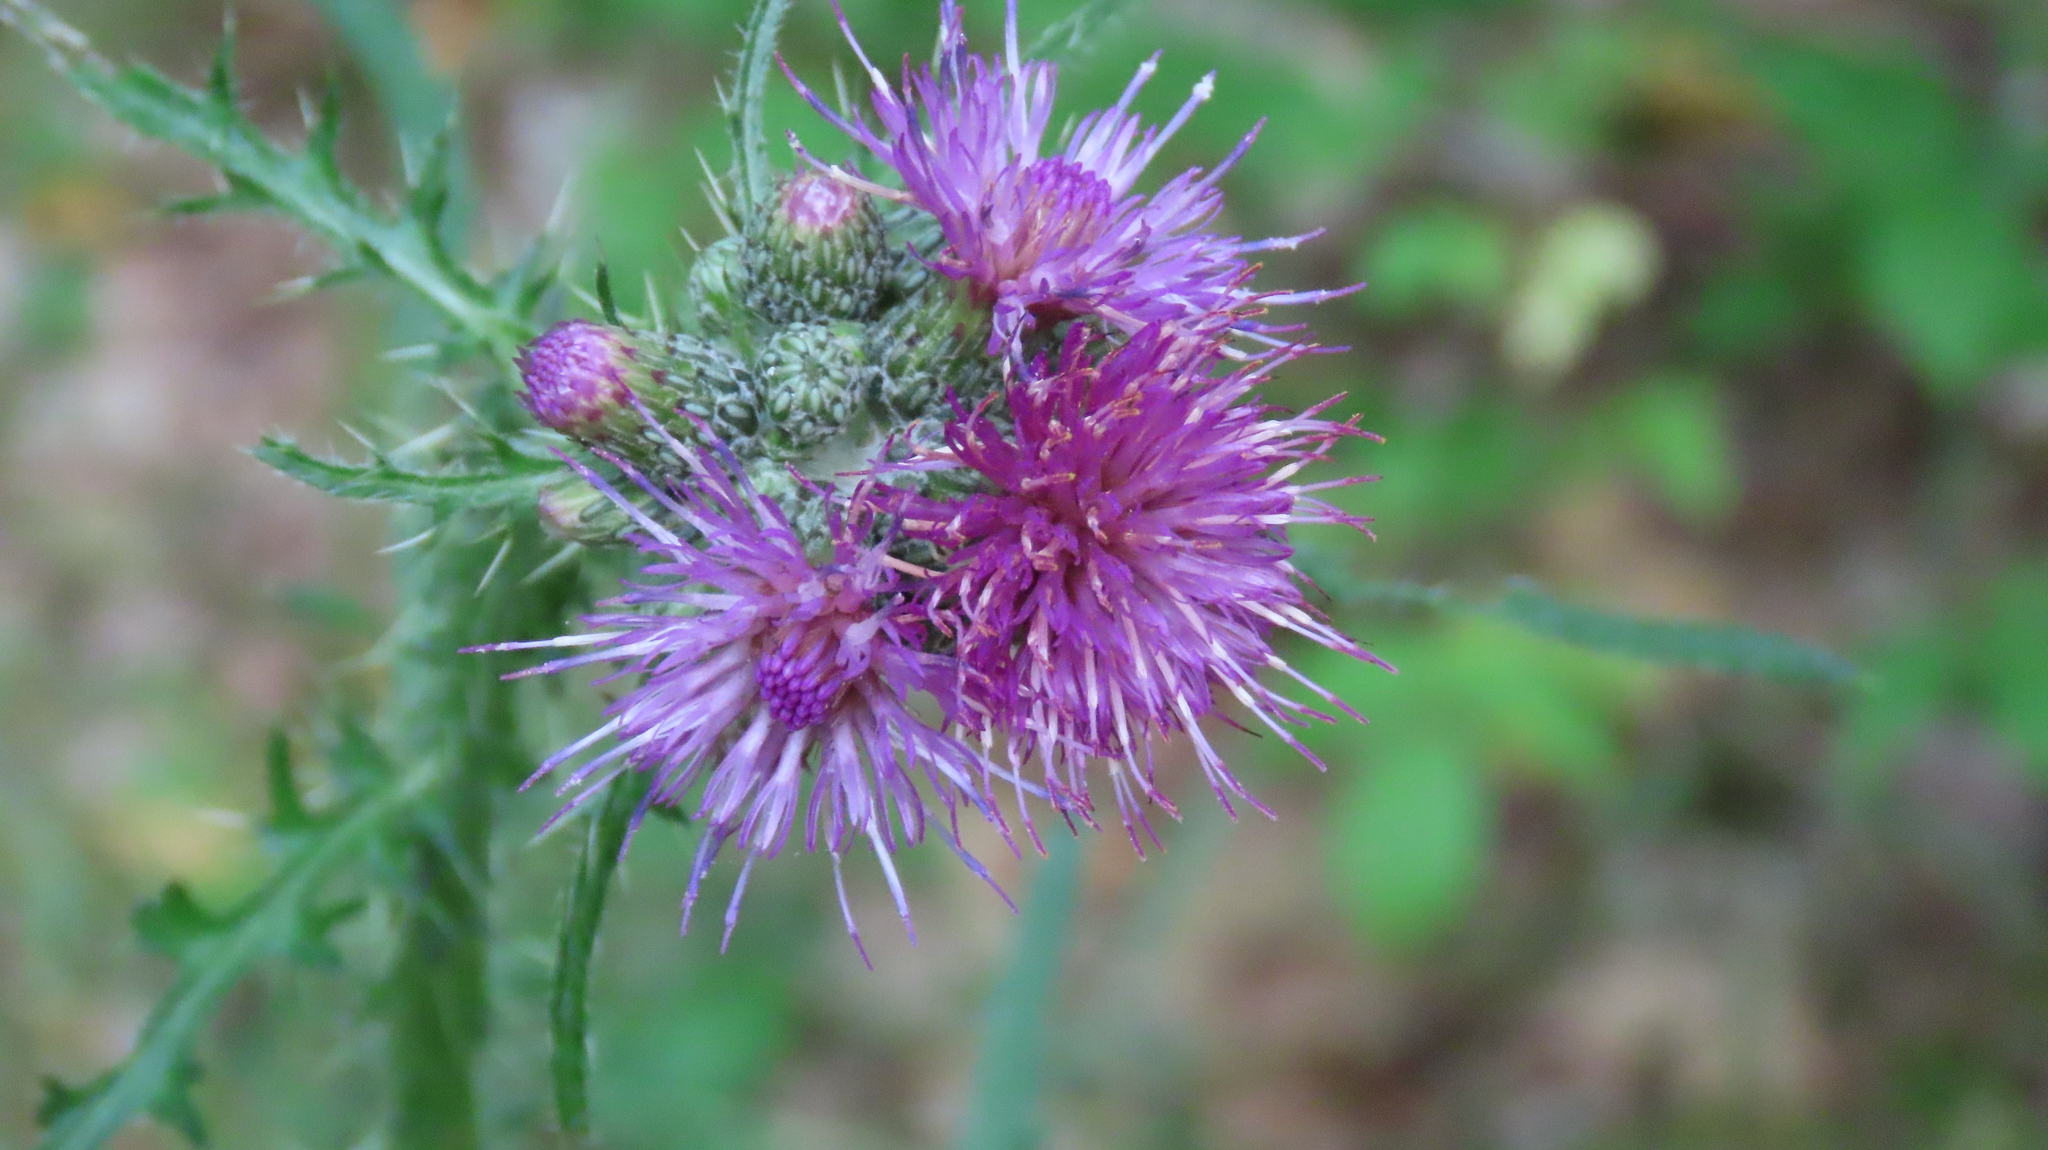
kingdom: Plantae
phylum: Tracheophyta
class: Magnoliopsida
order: Asterales
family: Asteraceae
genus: Cirsium
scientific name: Cirsium palustre
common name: Marsh thistle
